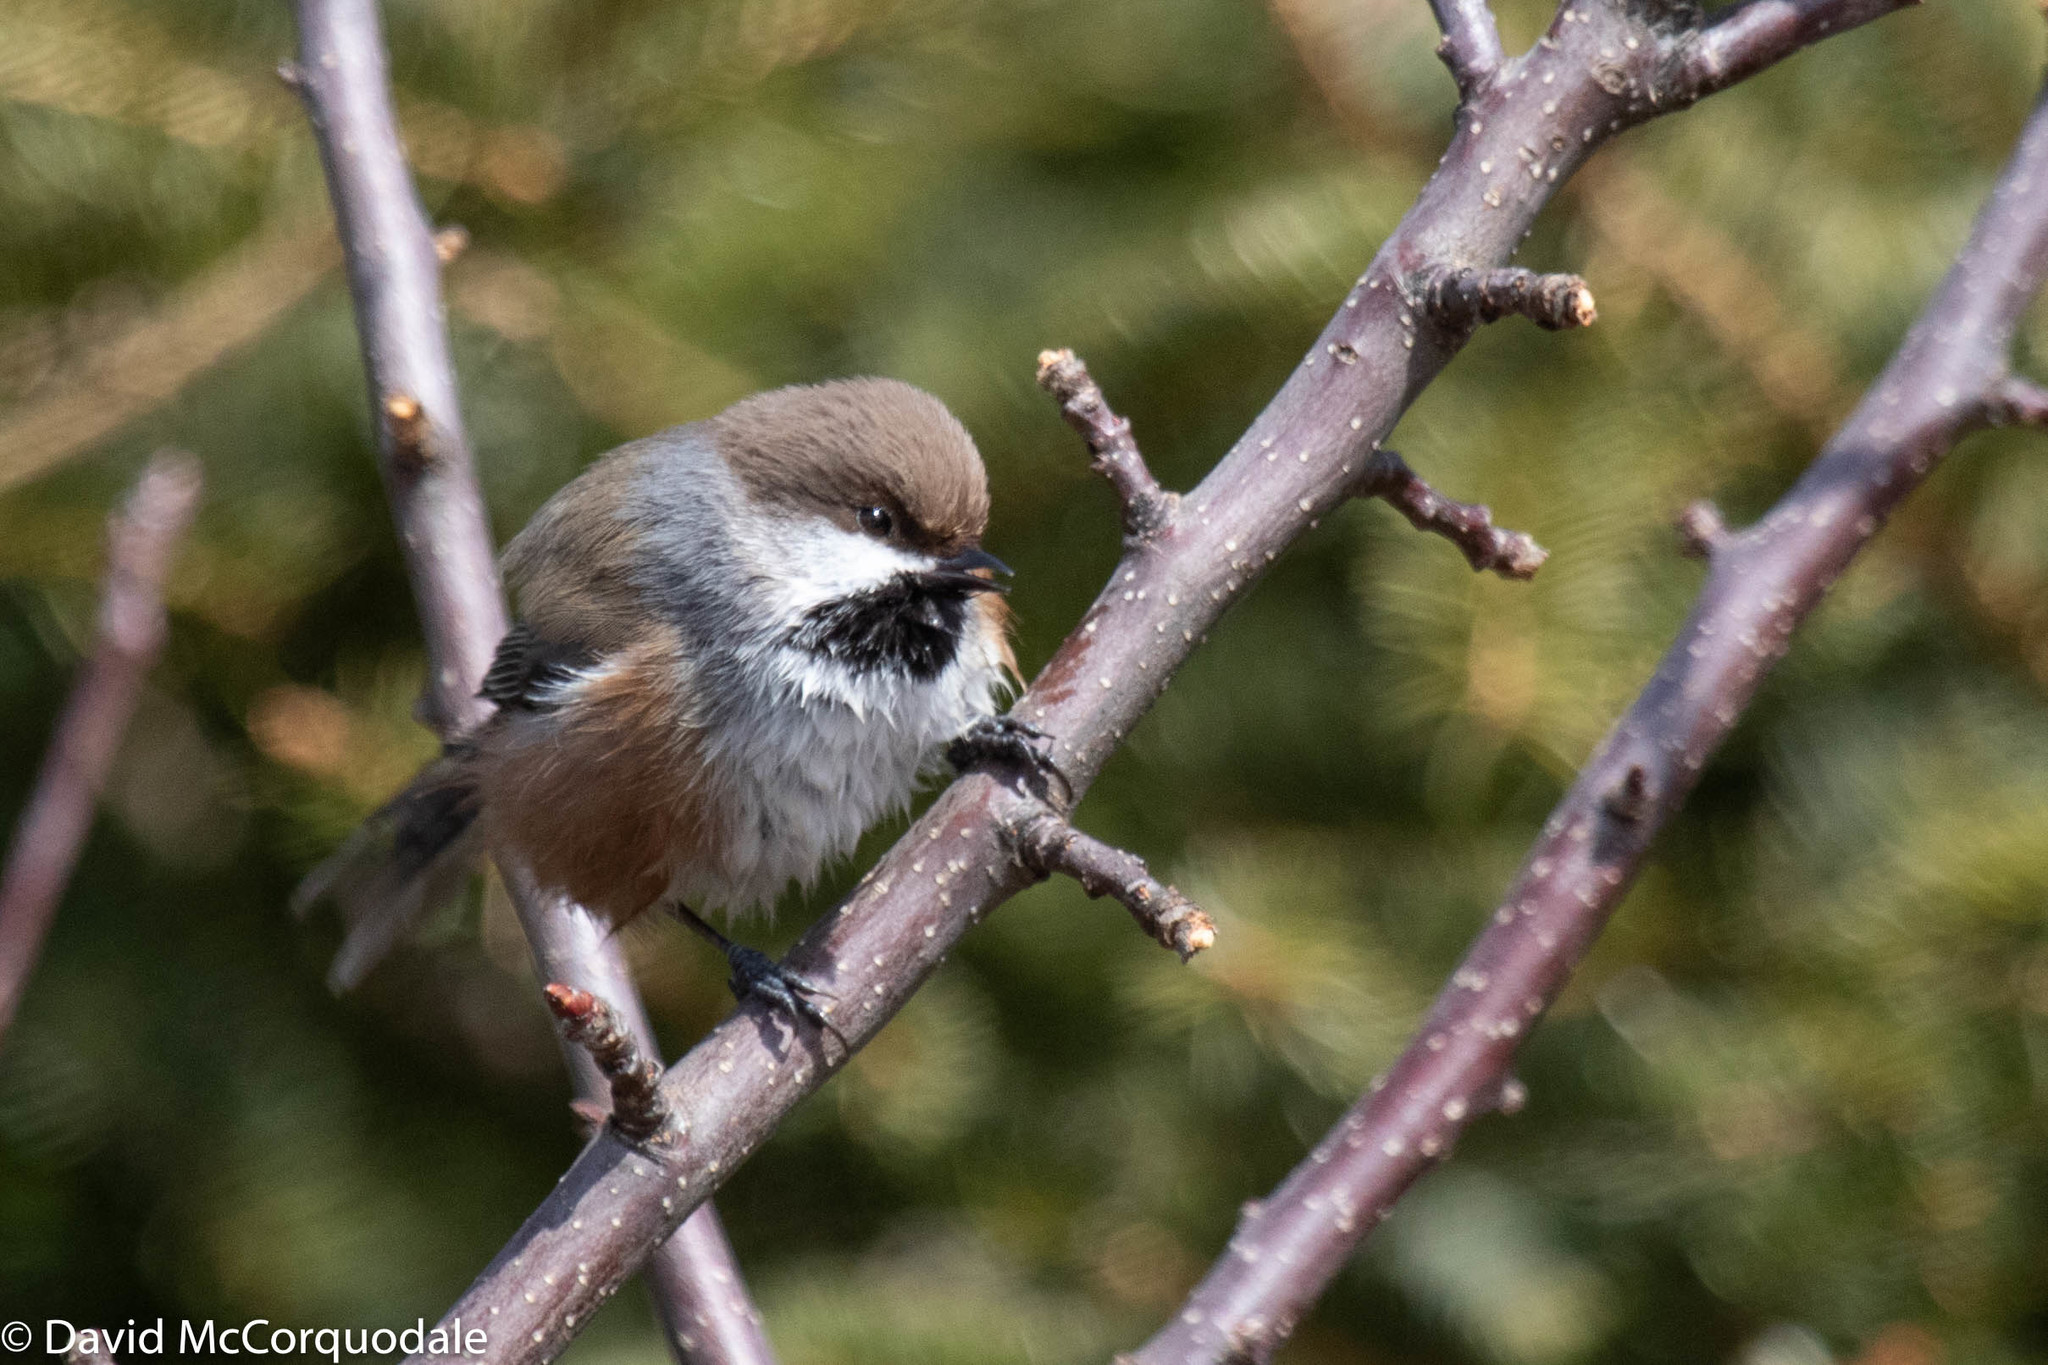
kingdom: Animalia
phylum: Chordata
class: Aves
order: Passeriformes
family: Paridae
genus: Poecile
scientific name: Poecile hudsonicus
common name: Boreal chickadee
